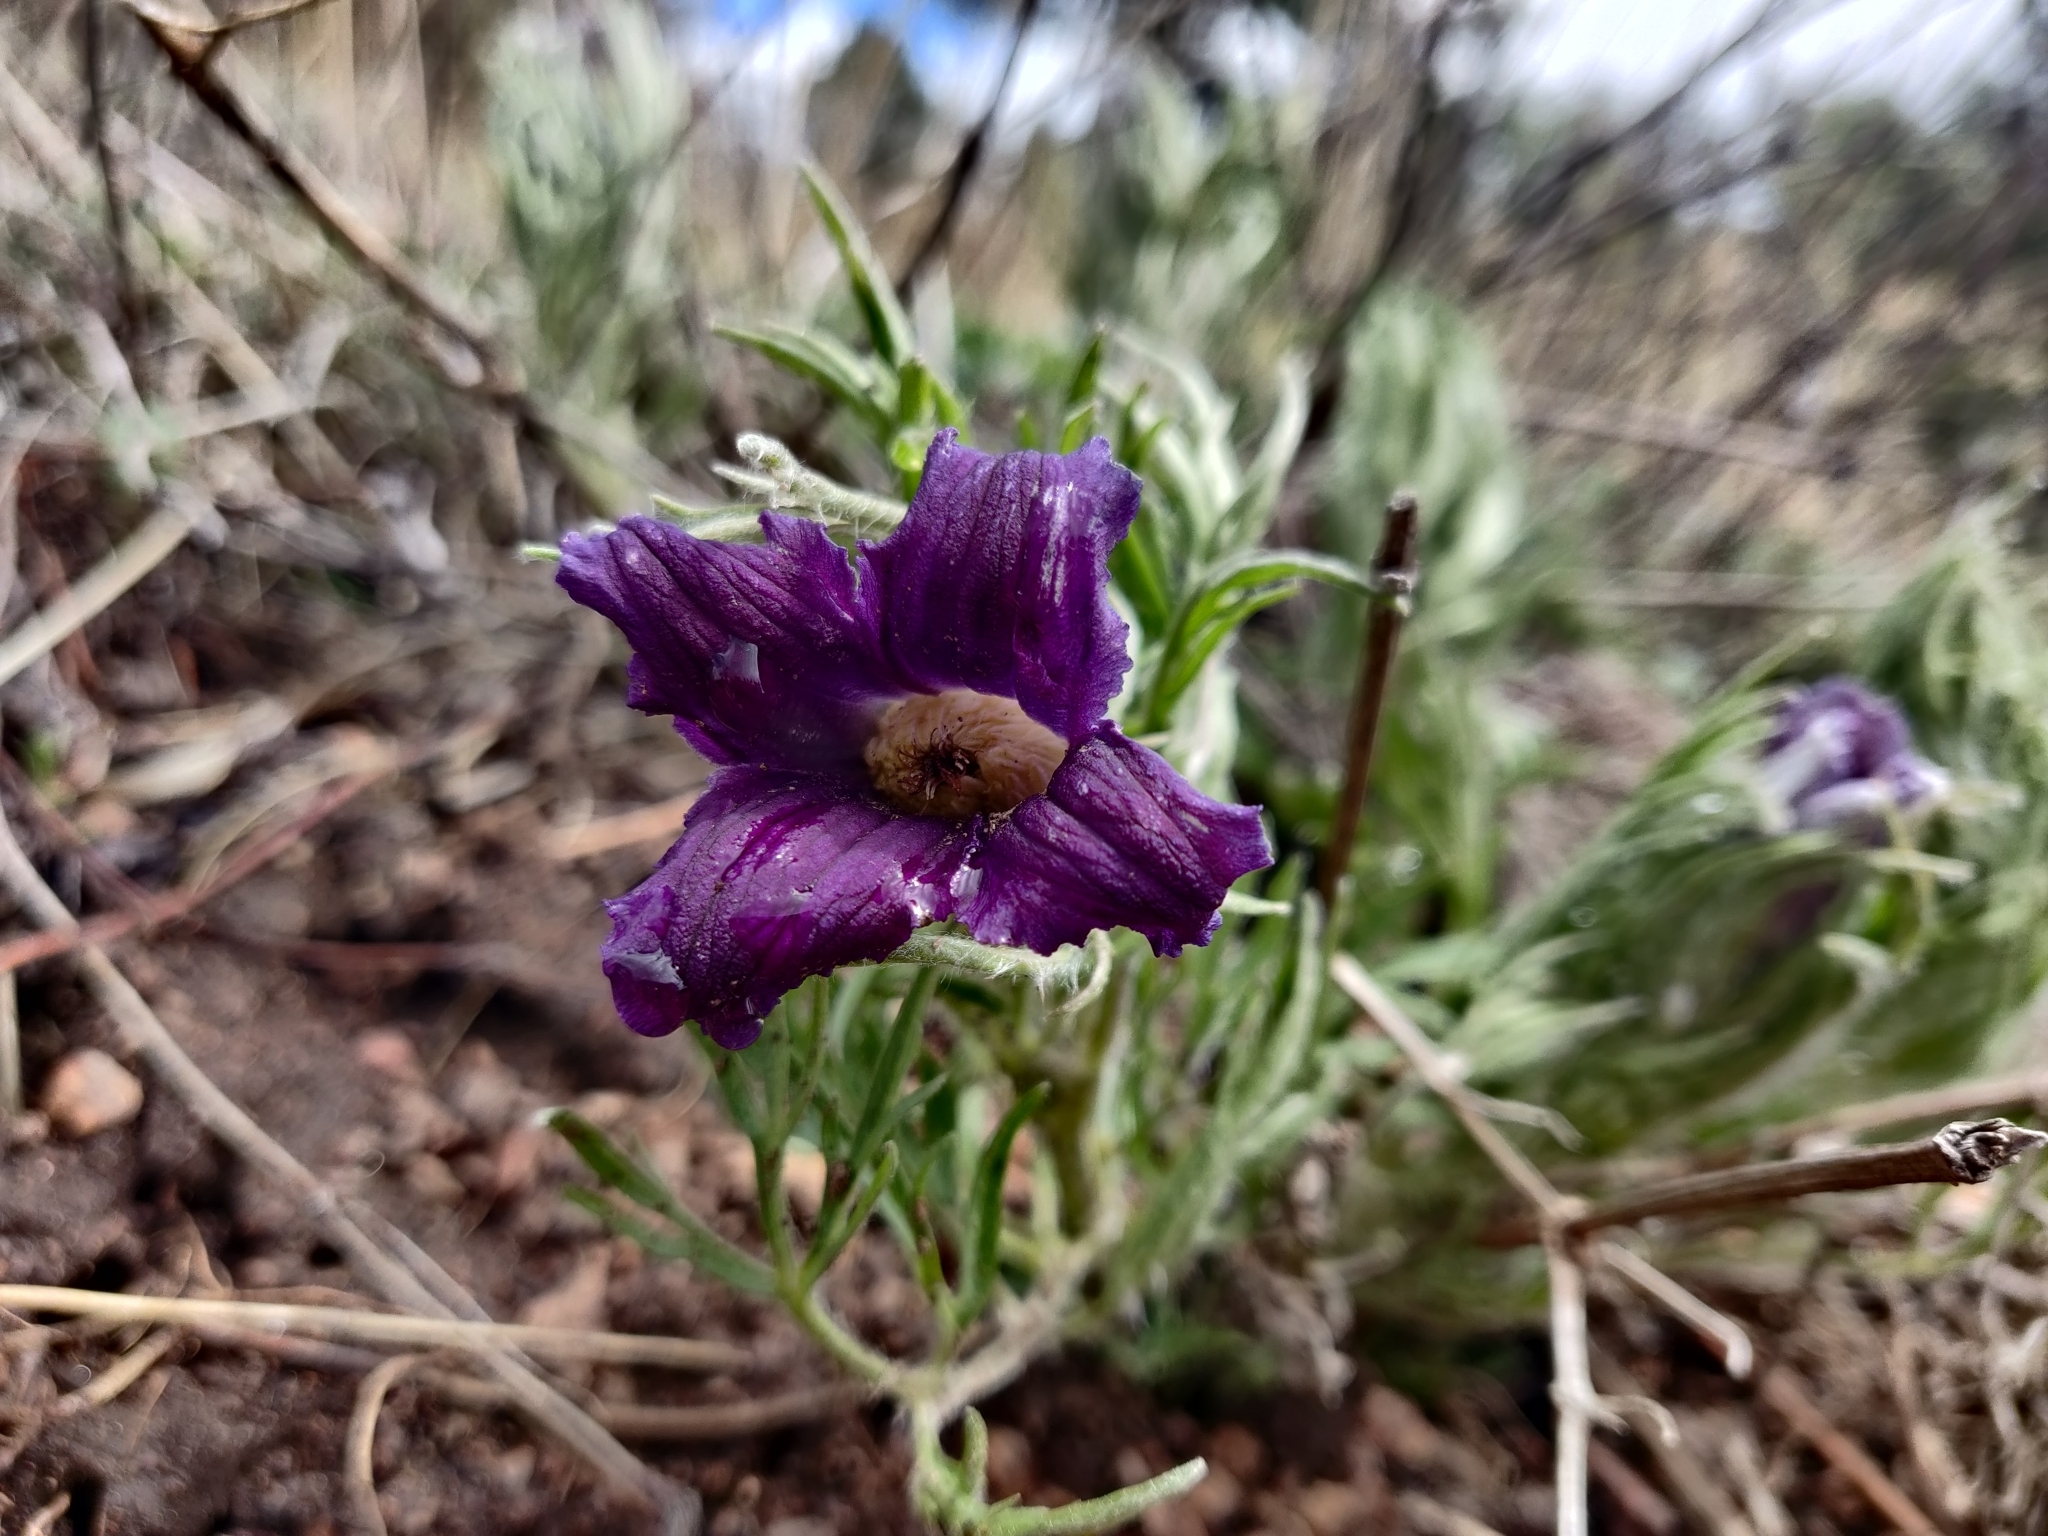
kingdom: Plantae
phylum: Tracheophyta
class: Magnoliopsida
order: Ranunculales
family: Ranunculaceae
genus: Clematis
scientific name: Clematis hirsutissima
